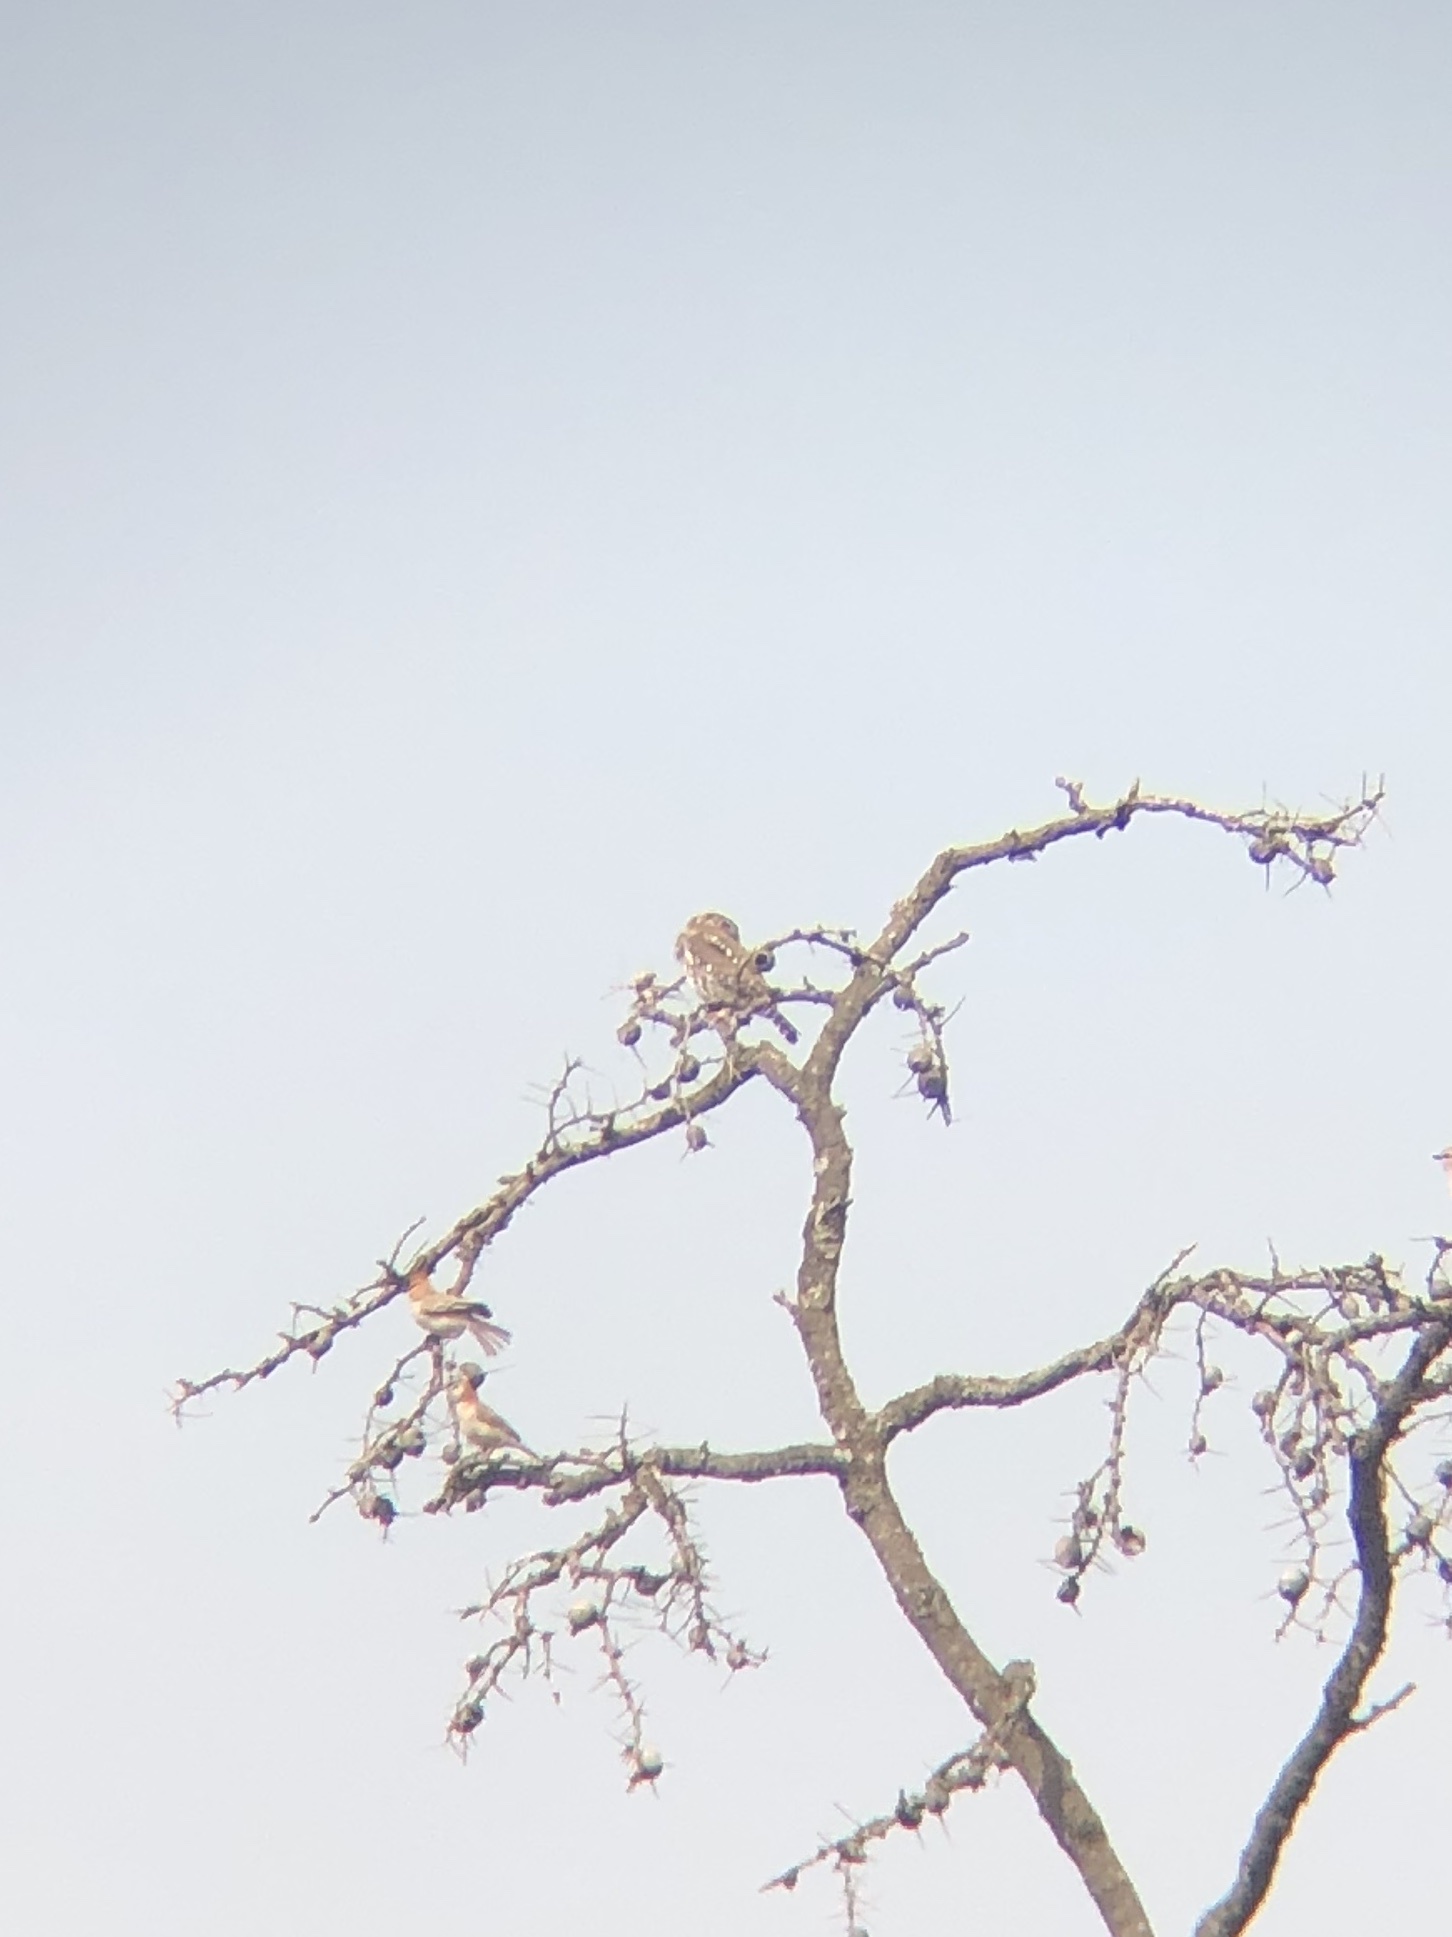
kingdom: Animalia
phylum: Chordata
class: Aves
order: Strigiformes
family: Strigidae
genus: Glaucidium
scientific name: Glaucidium perlatum
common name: Pearl-spotted owlet
